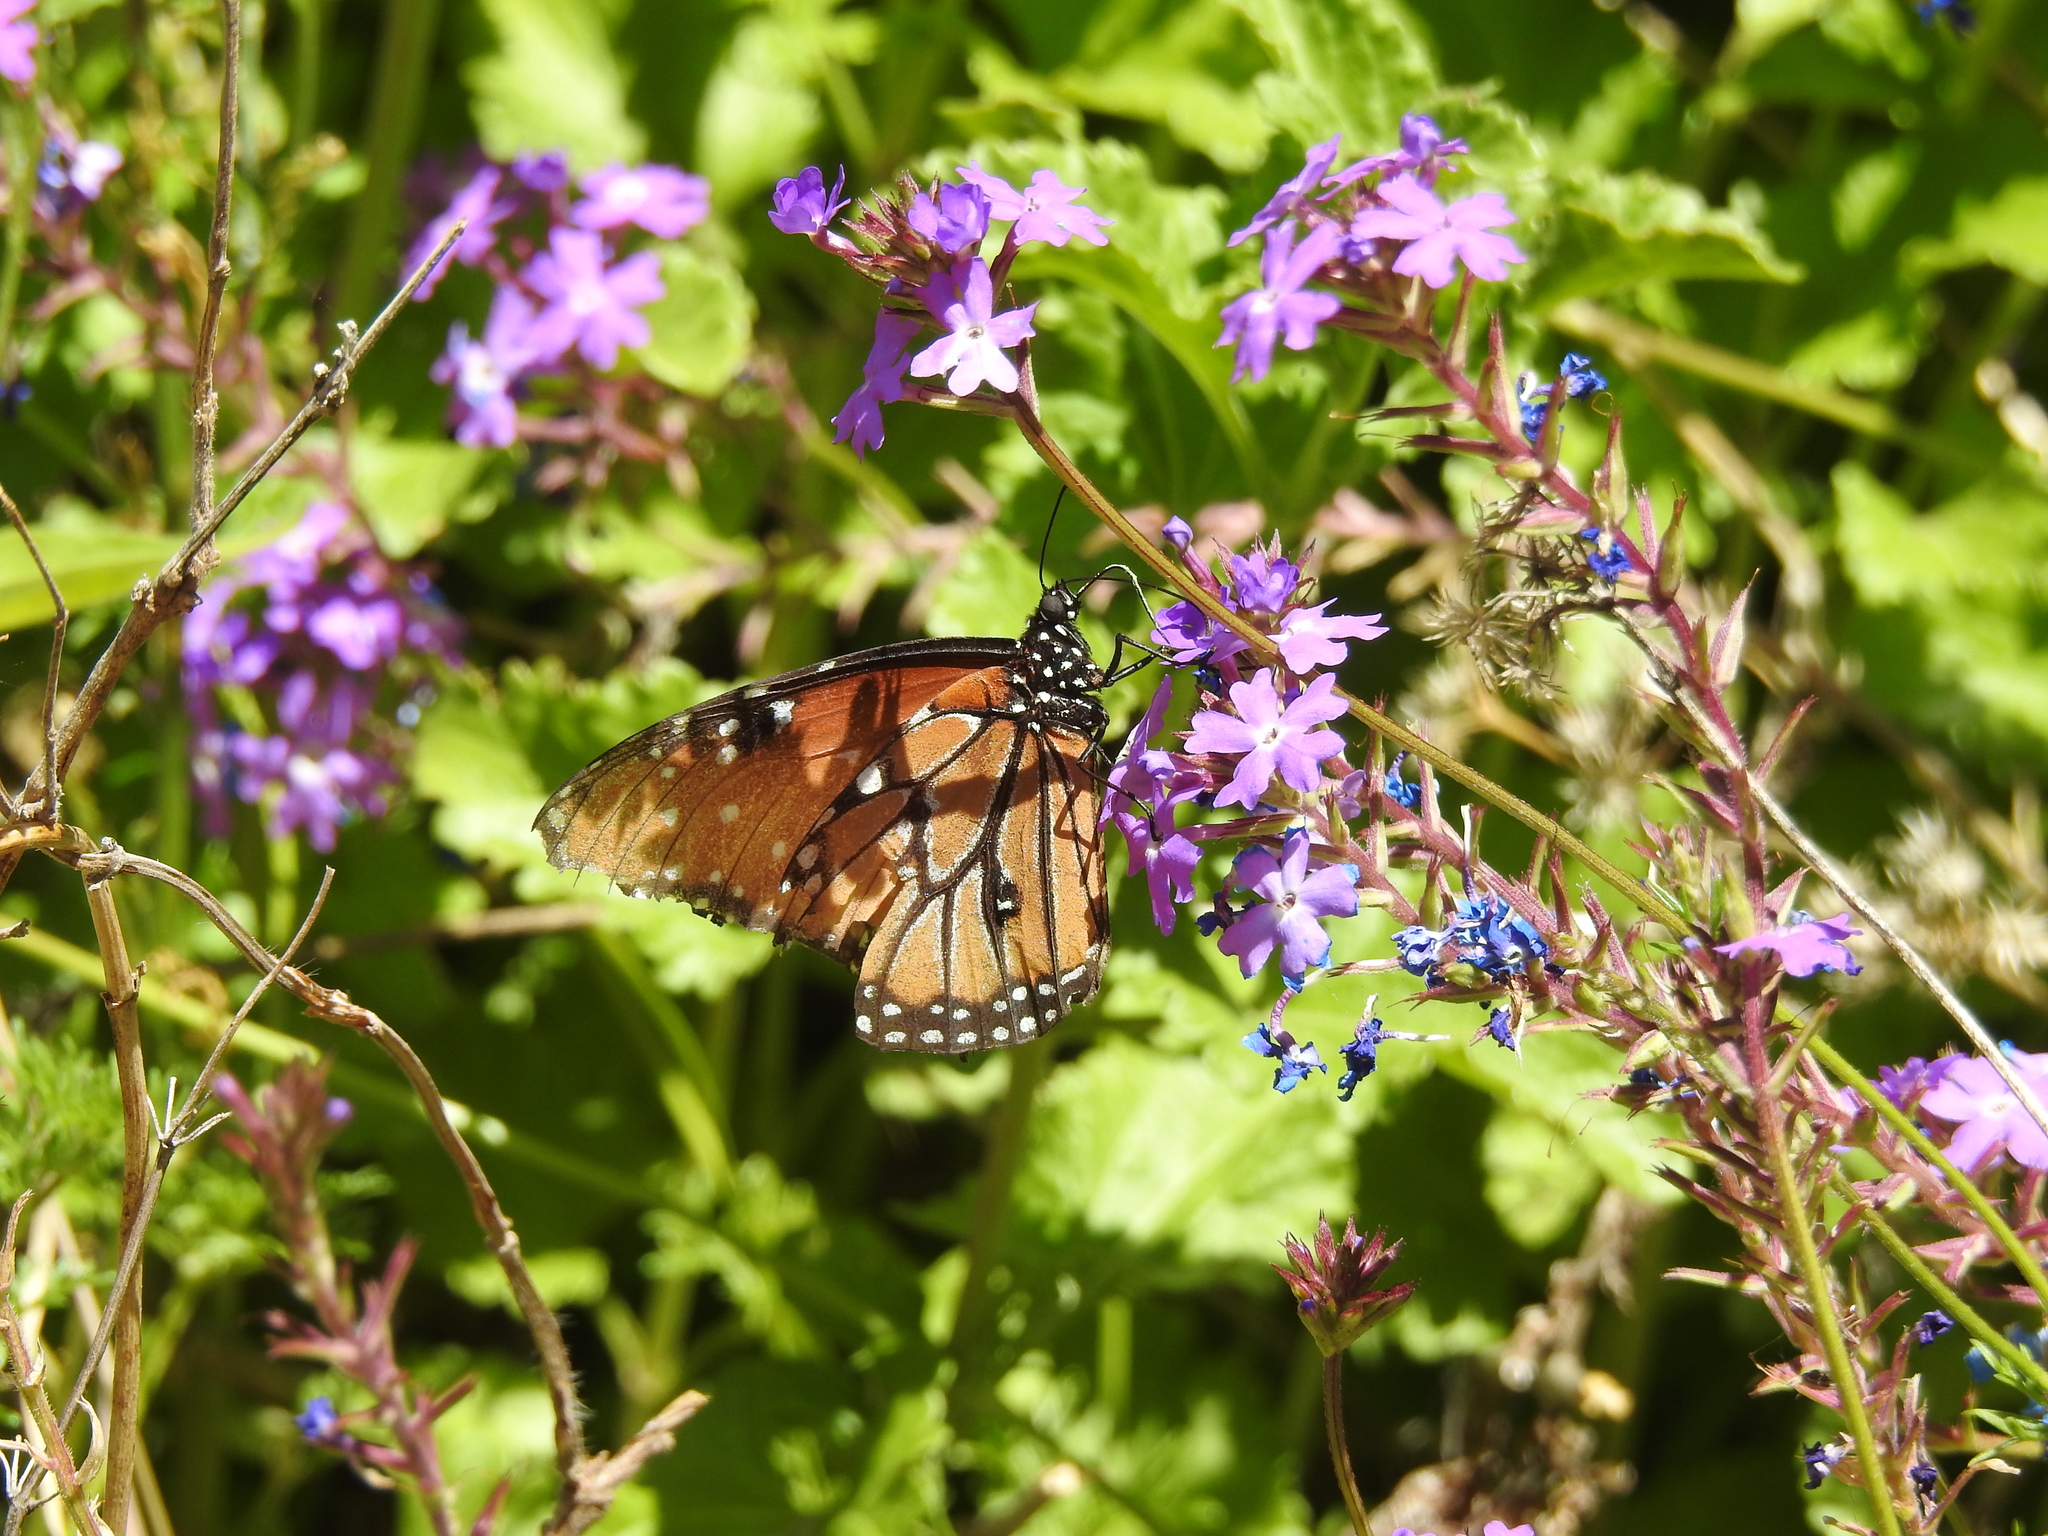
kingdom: Animalia
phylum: Arthropoda
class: Insecta
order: Lepidoptera
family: Nymphalidae
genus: Danaus
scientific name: Danaus gilippus
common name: Queen
